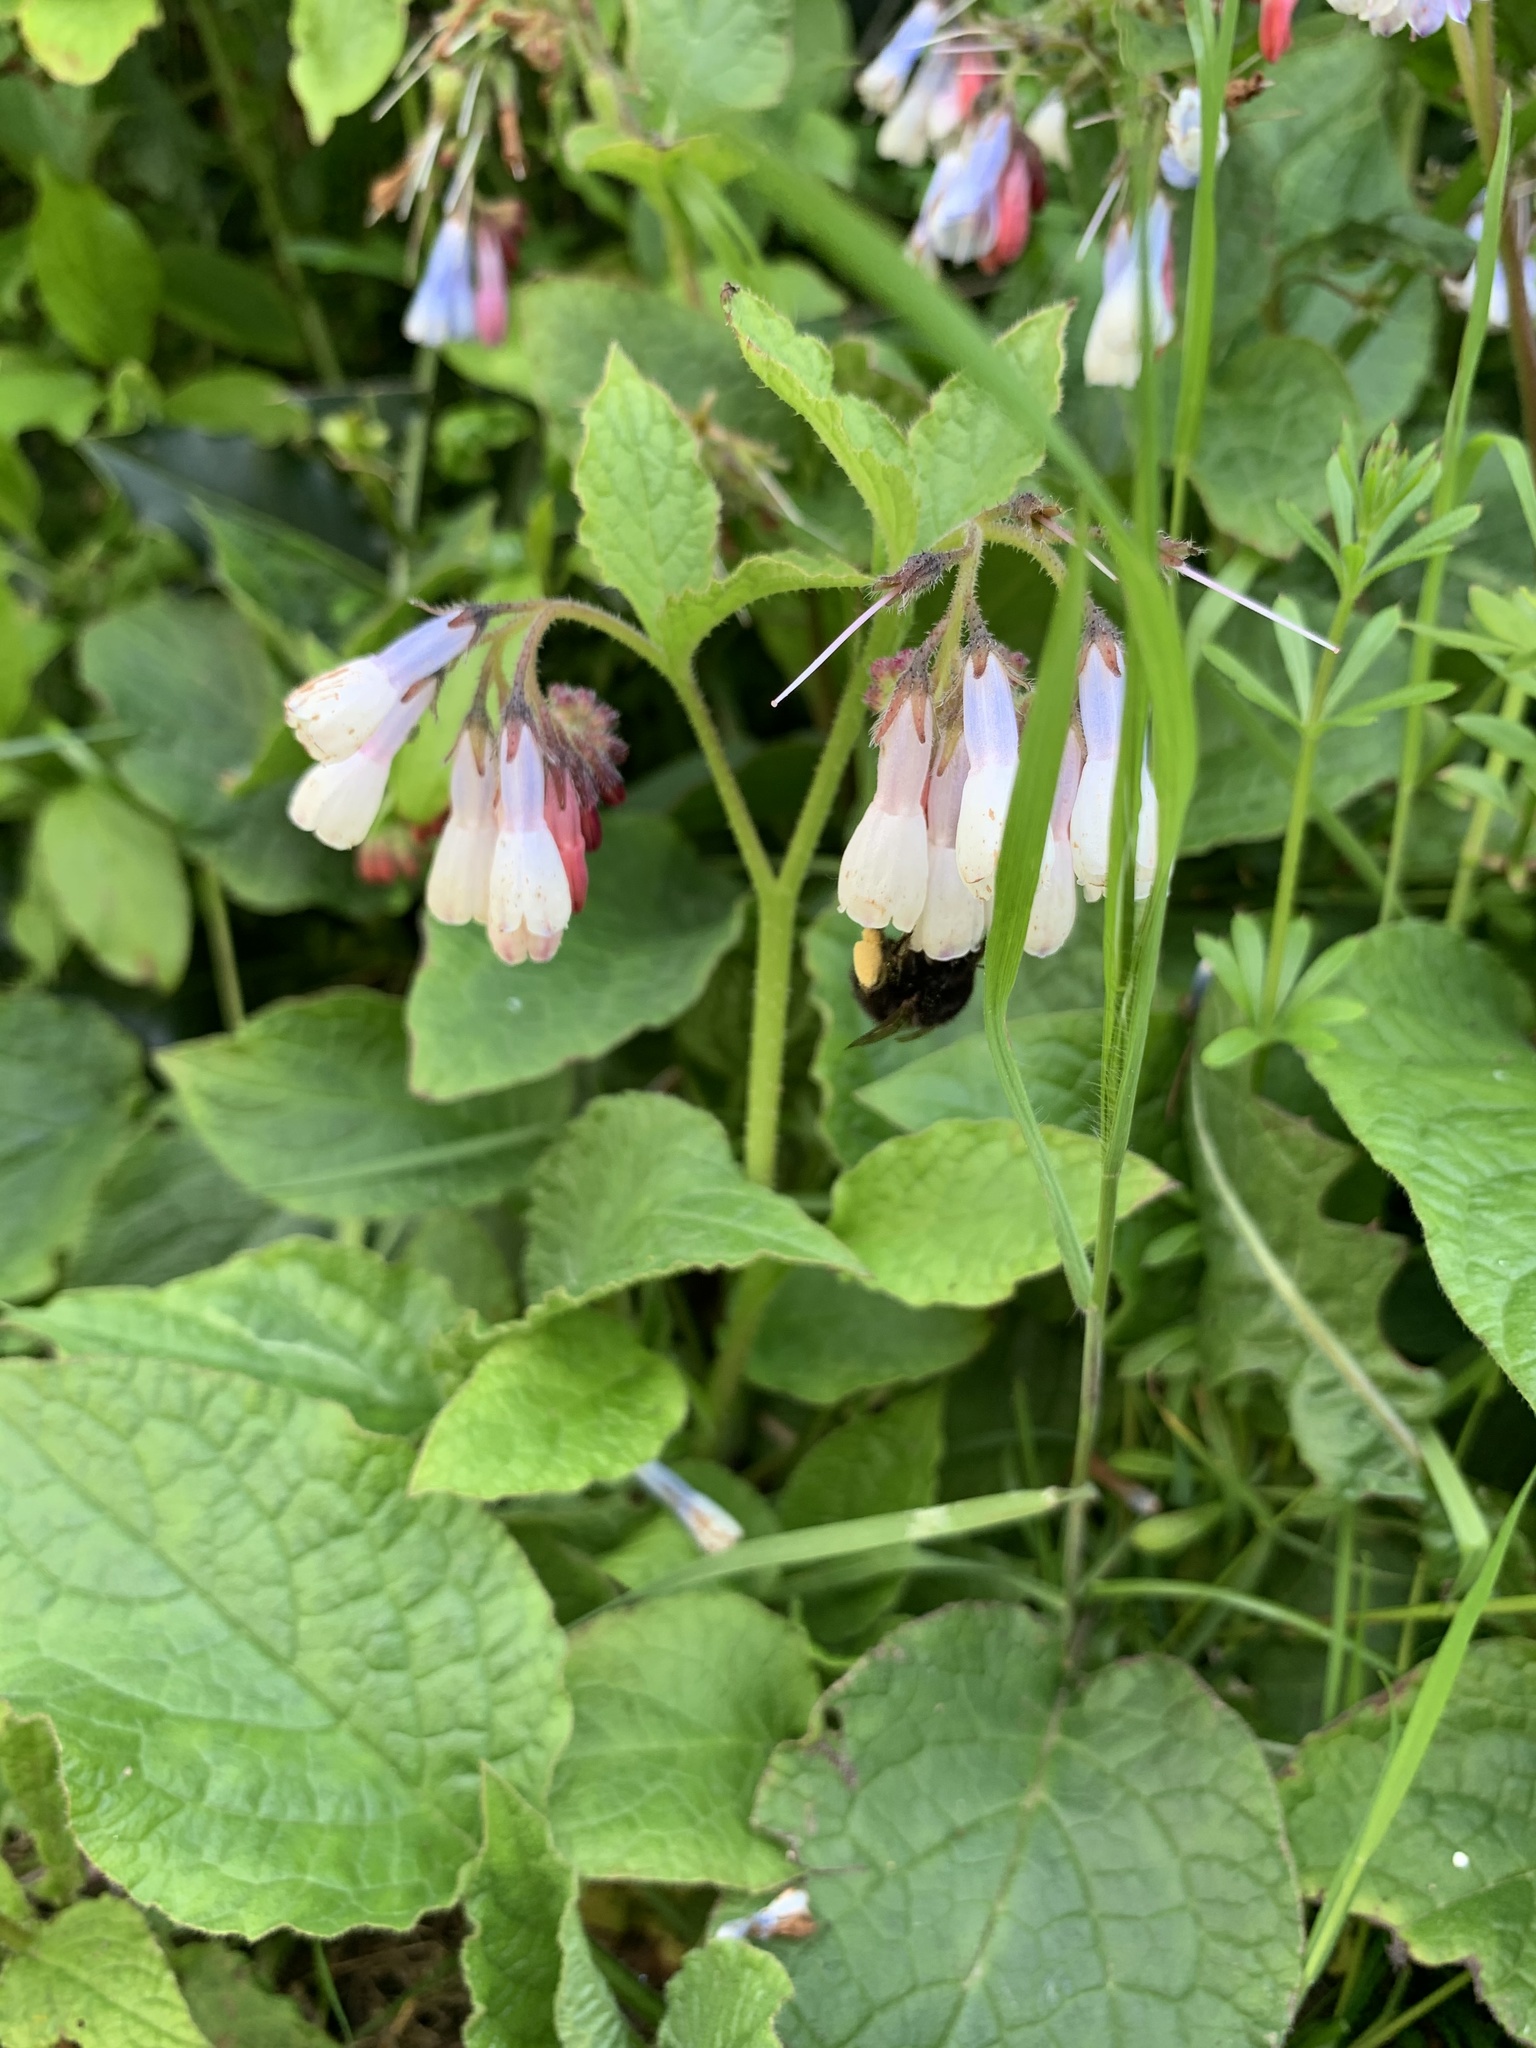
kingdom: Animalia
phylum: Arthropoda
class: Insecta
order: Hymenoptera
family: Apidae
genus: Anthophora
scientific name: Anthophora plumipes
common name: Hairy-footed flower bee
